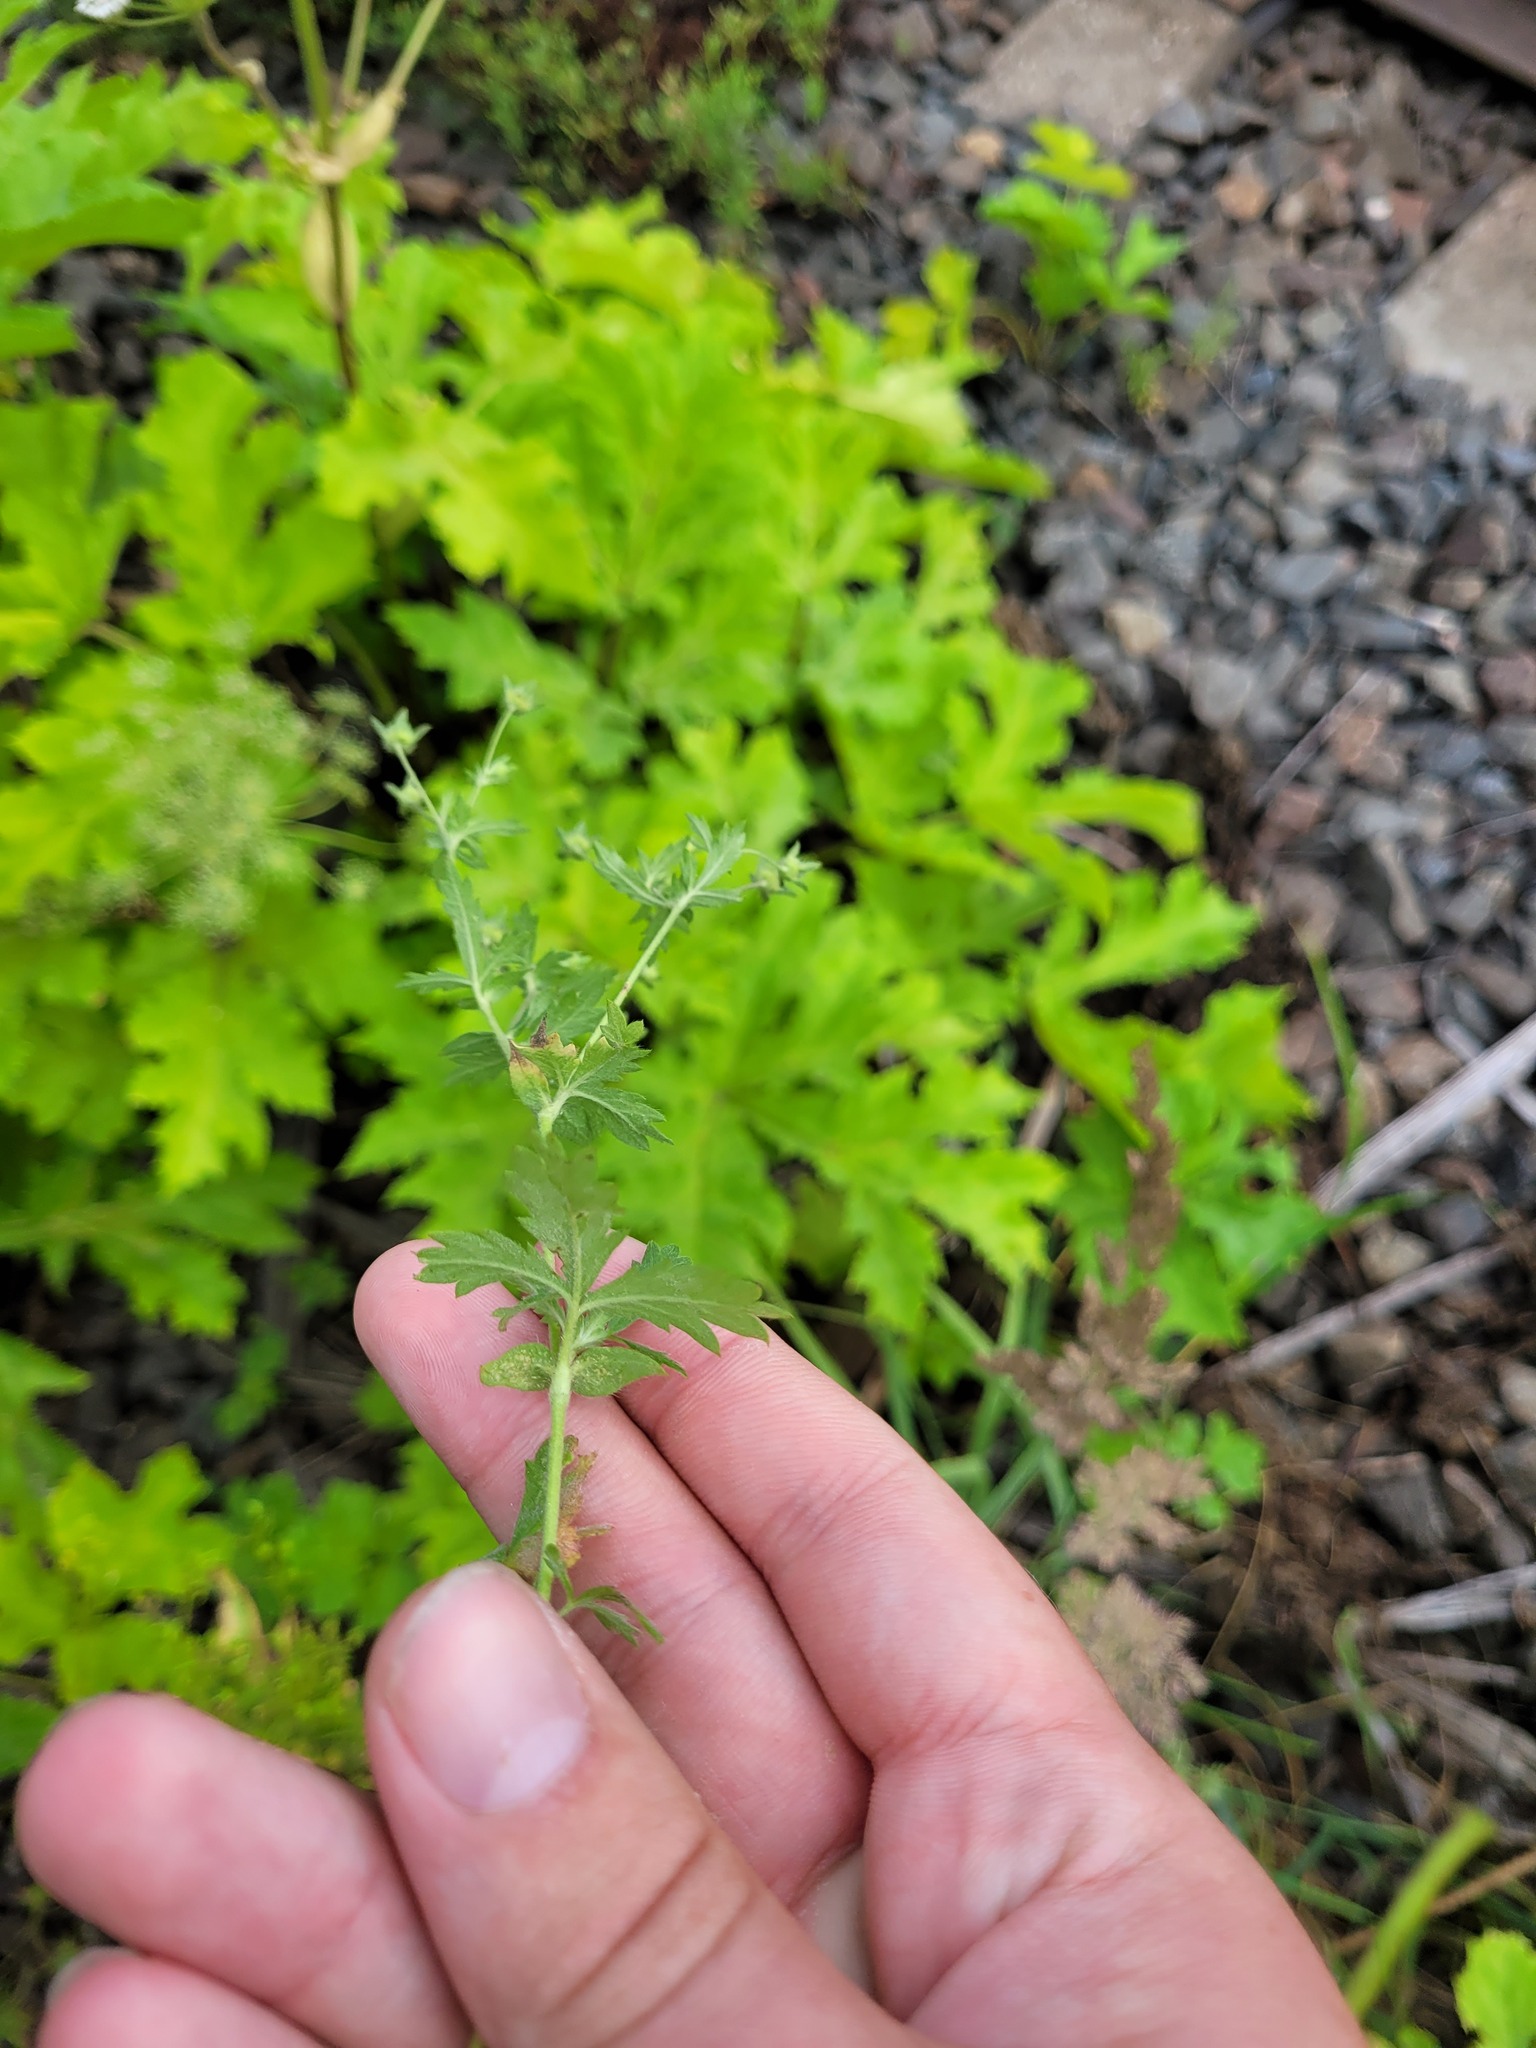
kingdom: Plantae
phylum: Tracheophyta
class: Magnoliopsida
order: Rosales
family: Rosaceae
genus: Potentilla
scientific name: Potentilla intermedia
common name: Downy cinquefoil
